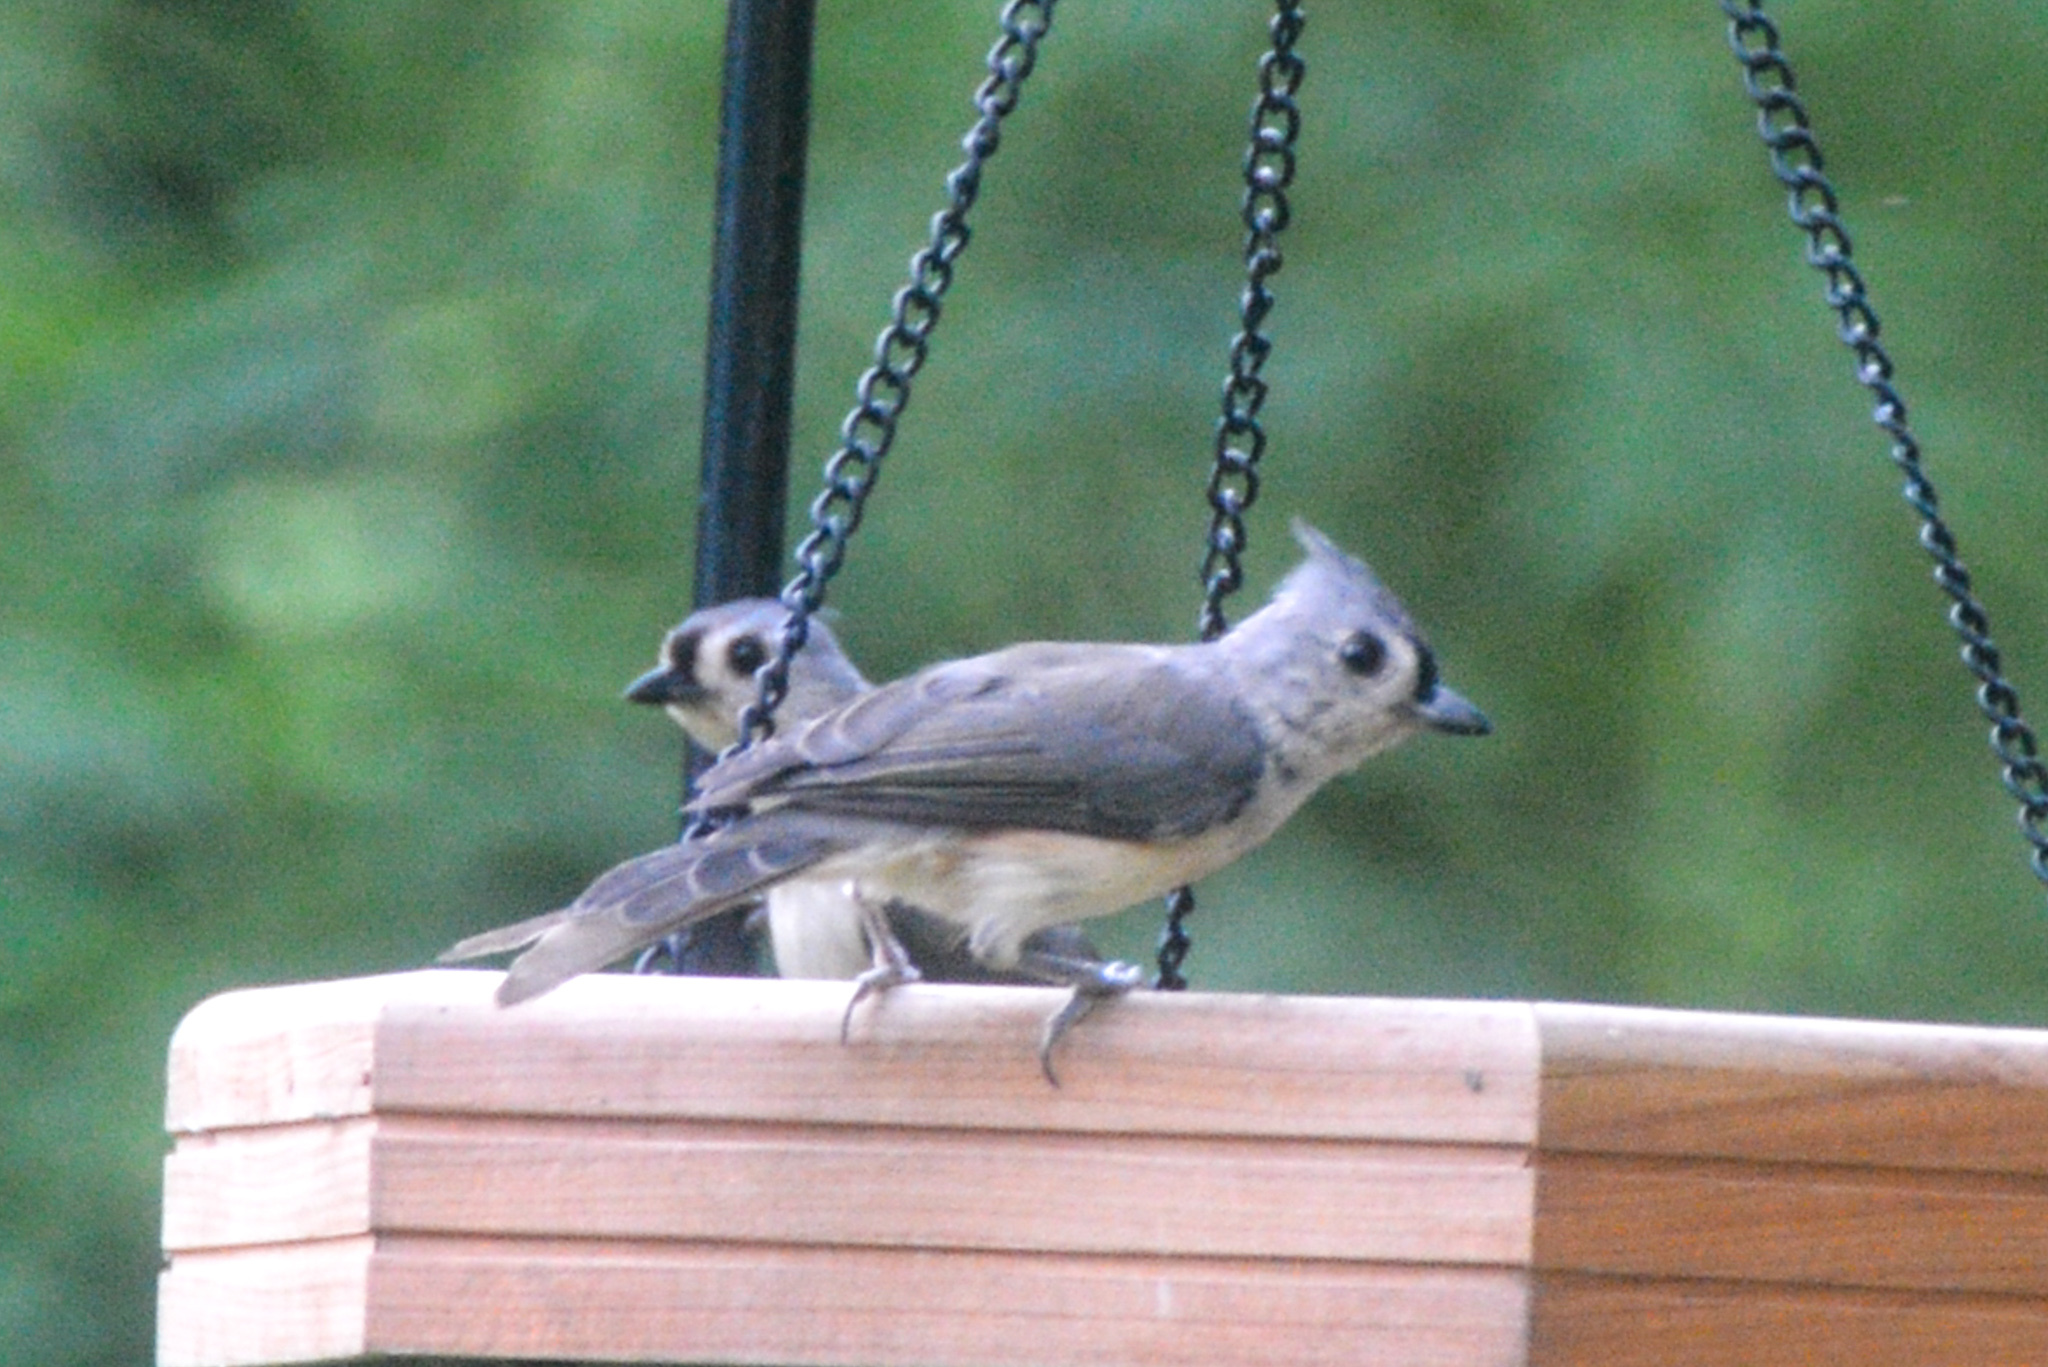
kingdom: Animalia
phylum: Chordata
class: Aves
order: Passeriformes
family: Paridae
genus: Baeolophus
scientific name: Baeolophus bicolor
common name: Tufted titmouse
